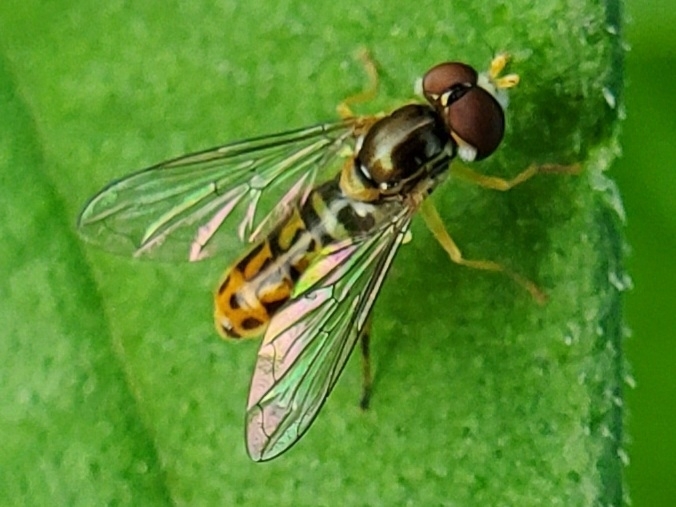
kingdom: Animalia
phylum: Arthropoda
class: Insecta
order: Diptera
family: Syrphidae
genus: Toxomerus
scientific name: Toxomerus marginatus
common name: Syrphid fly
